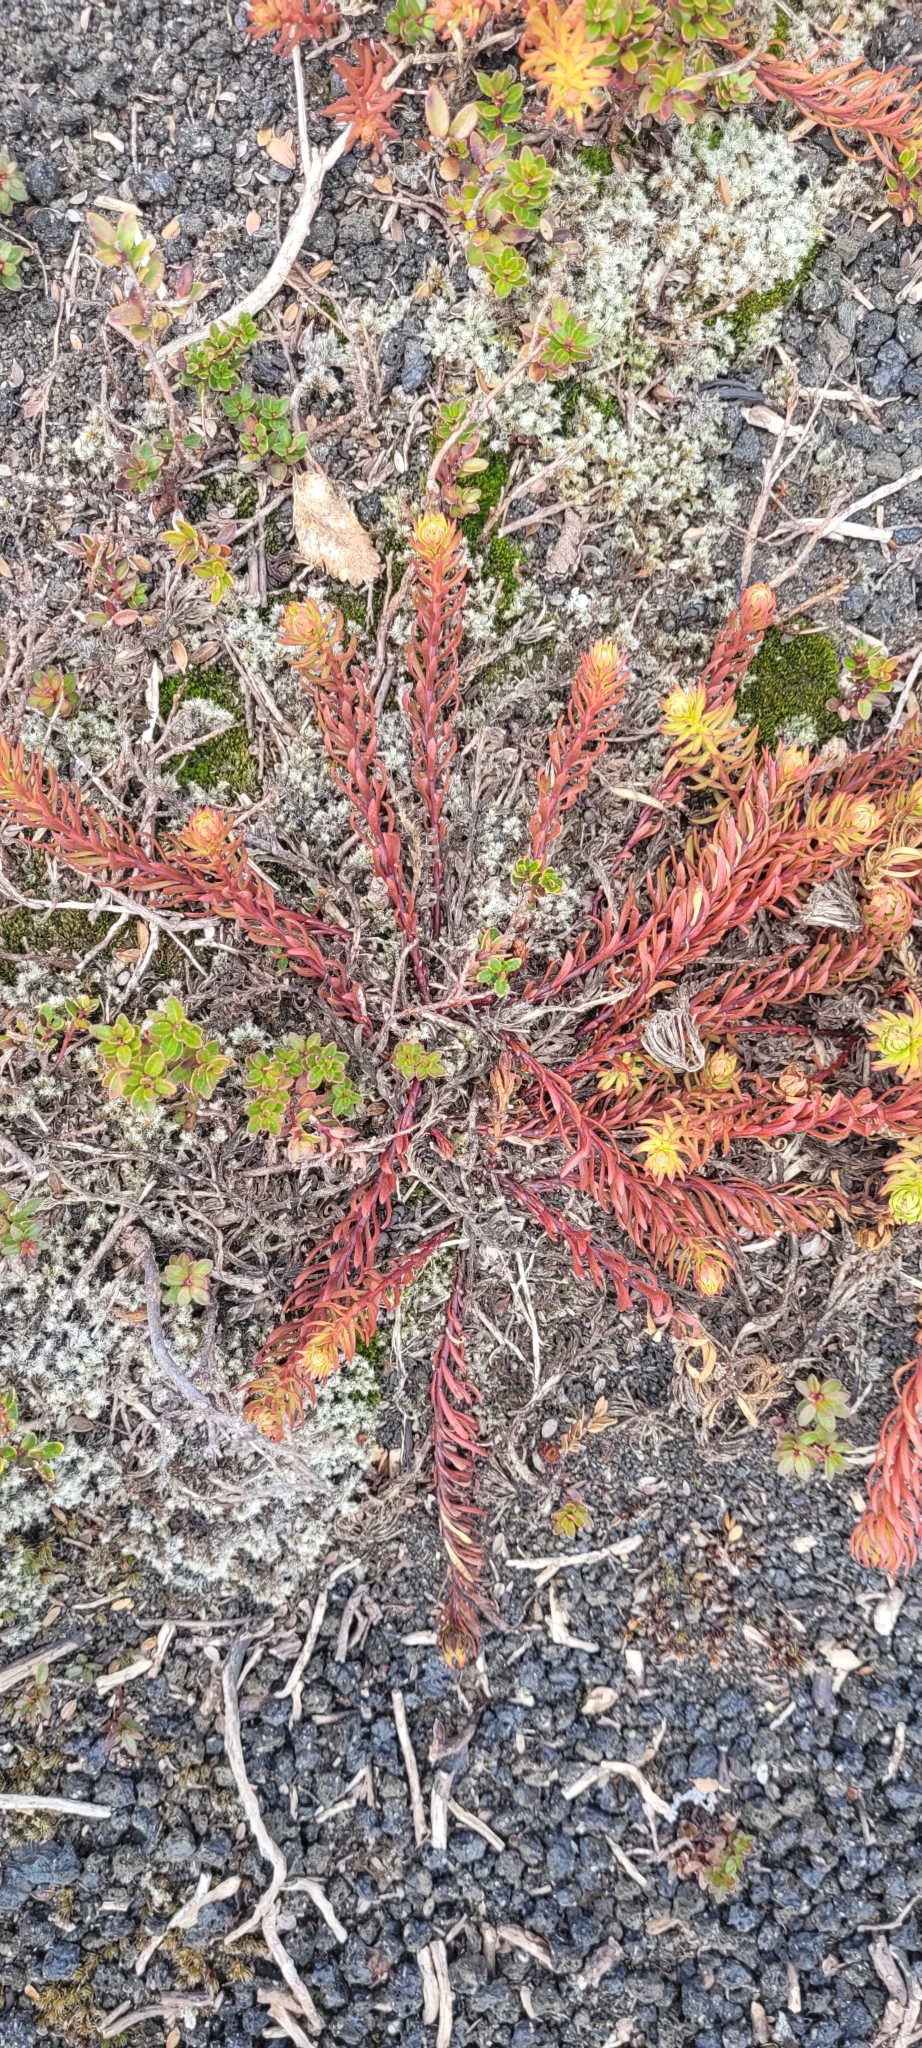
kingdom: Plantae
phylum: Tracheophyta
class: Magnoliopsida
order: Santalales
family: Schoepfiaceae
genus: Quinchamalium
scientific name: Quinchamalium chilense
